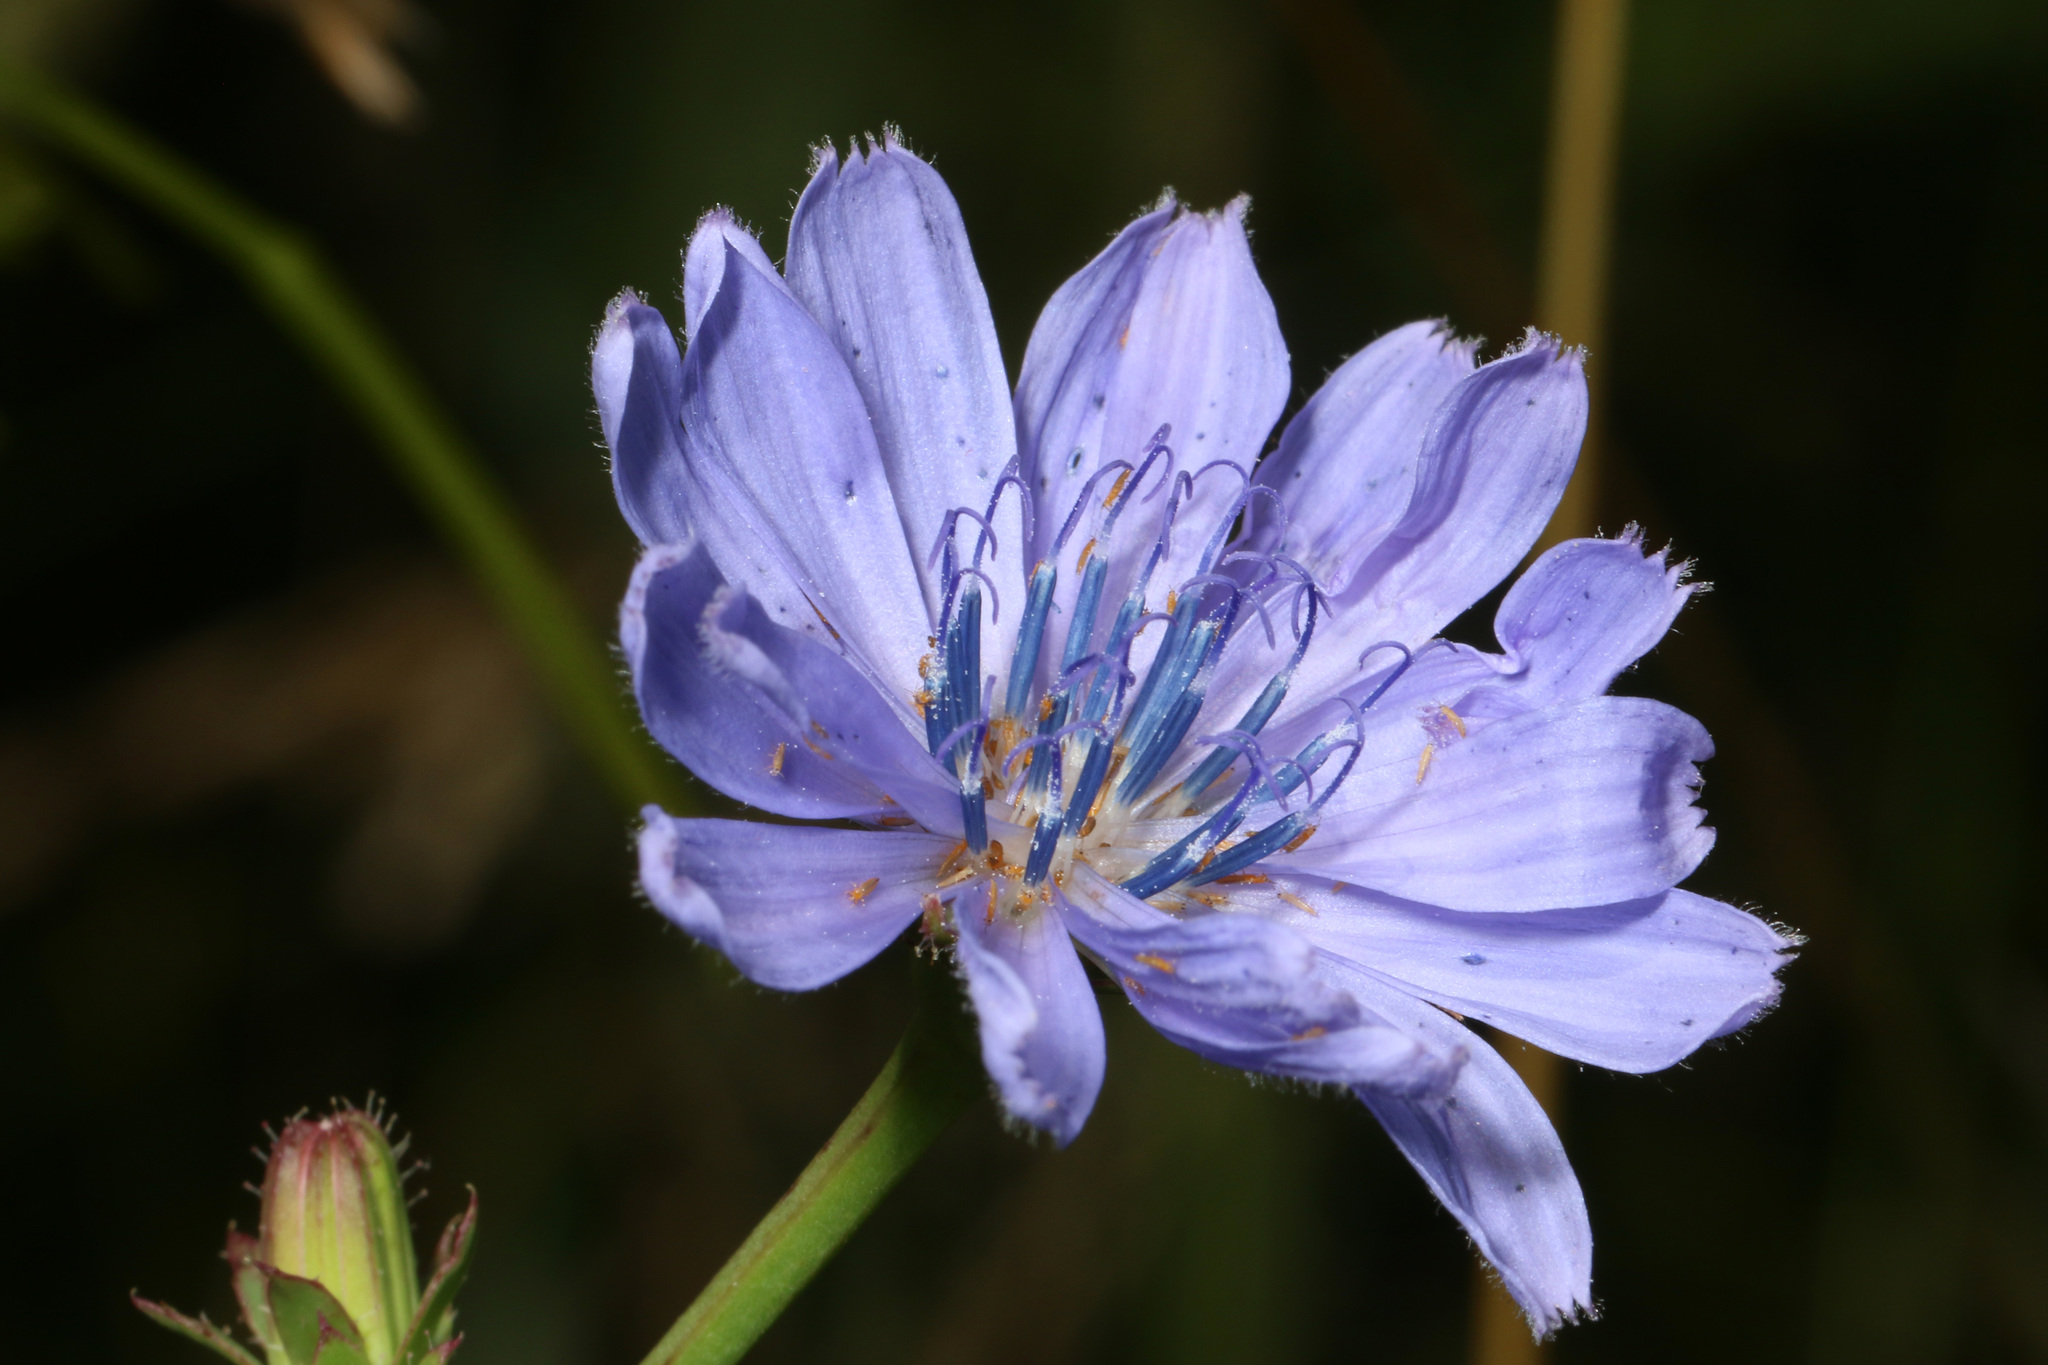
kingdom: Plantae
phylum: Tracheophyta
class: Magnoliopsida
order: Asterales
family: Asteraceae
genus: Cichorium
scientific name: Cichorium intybus
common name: Chicory
